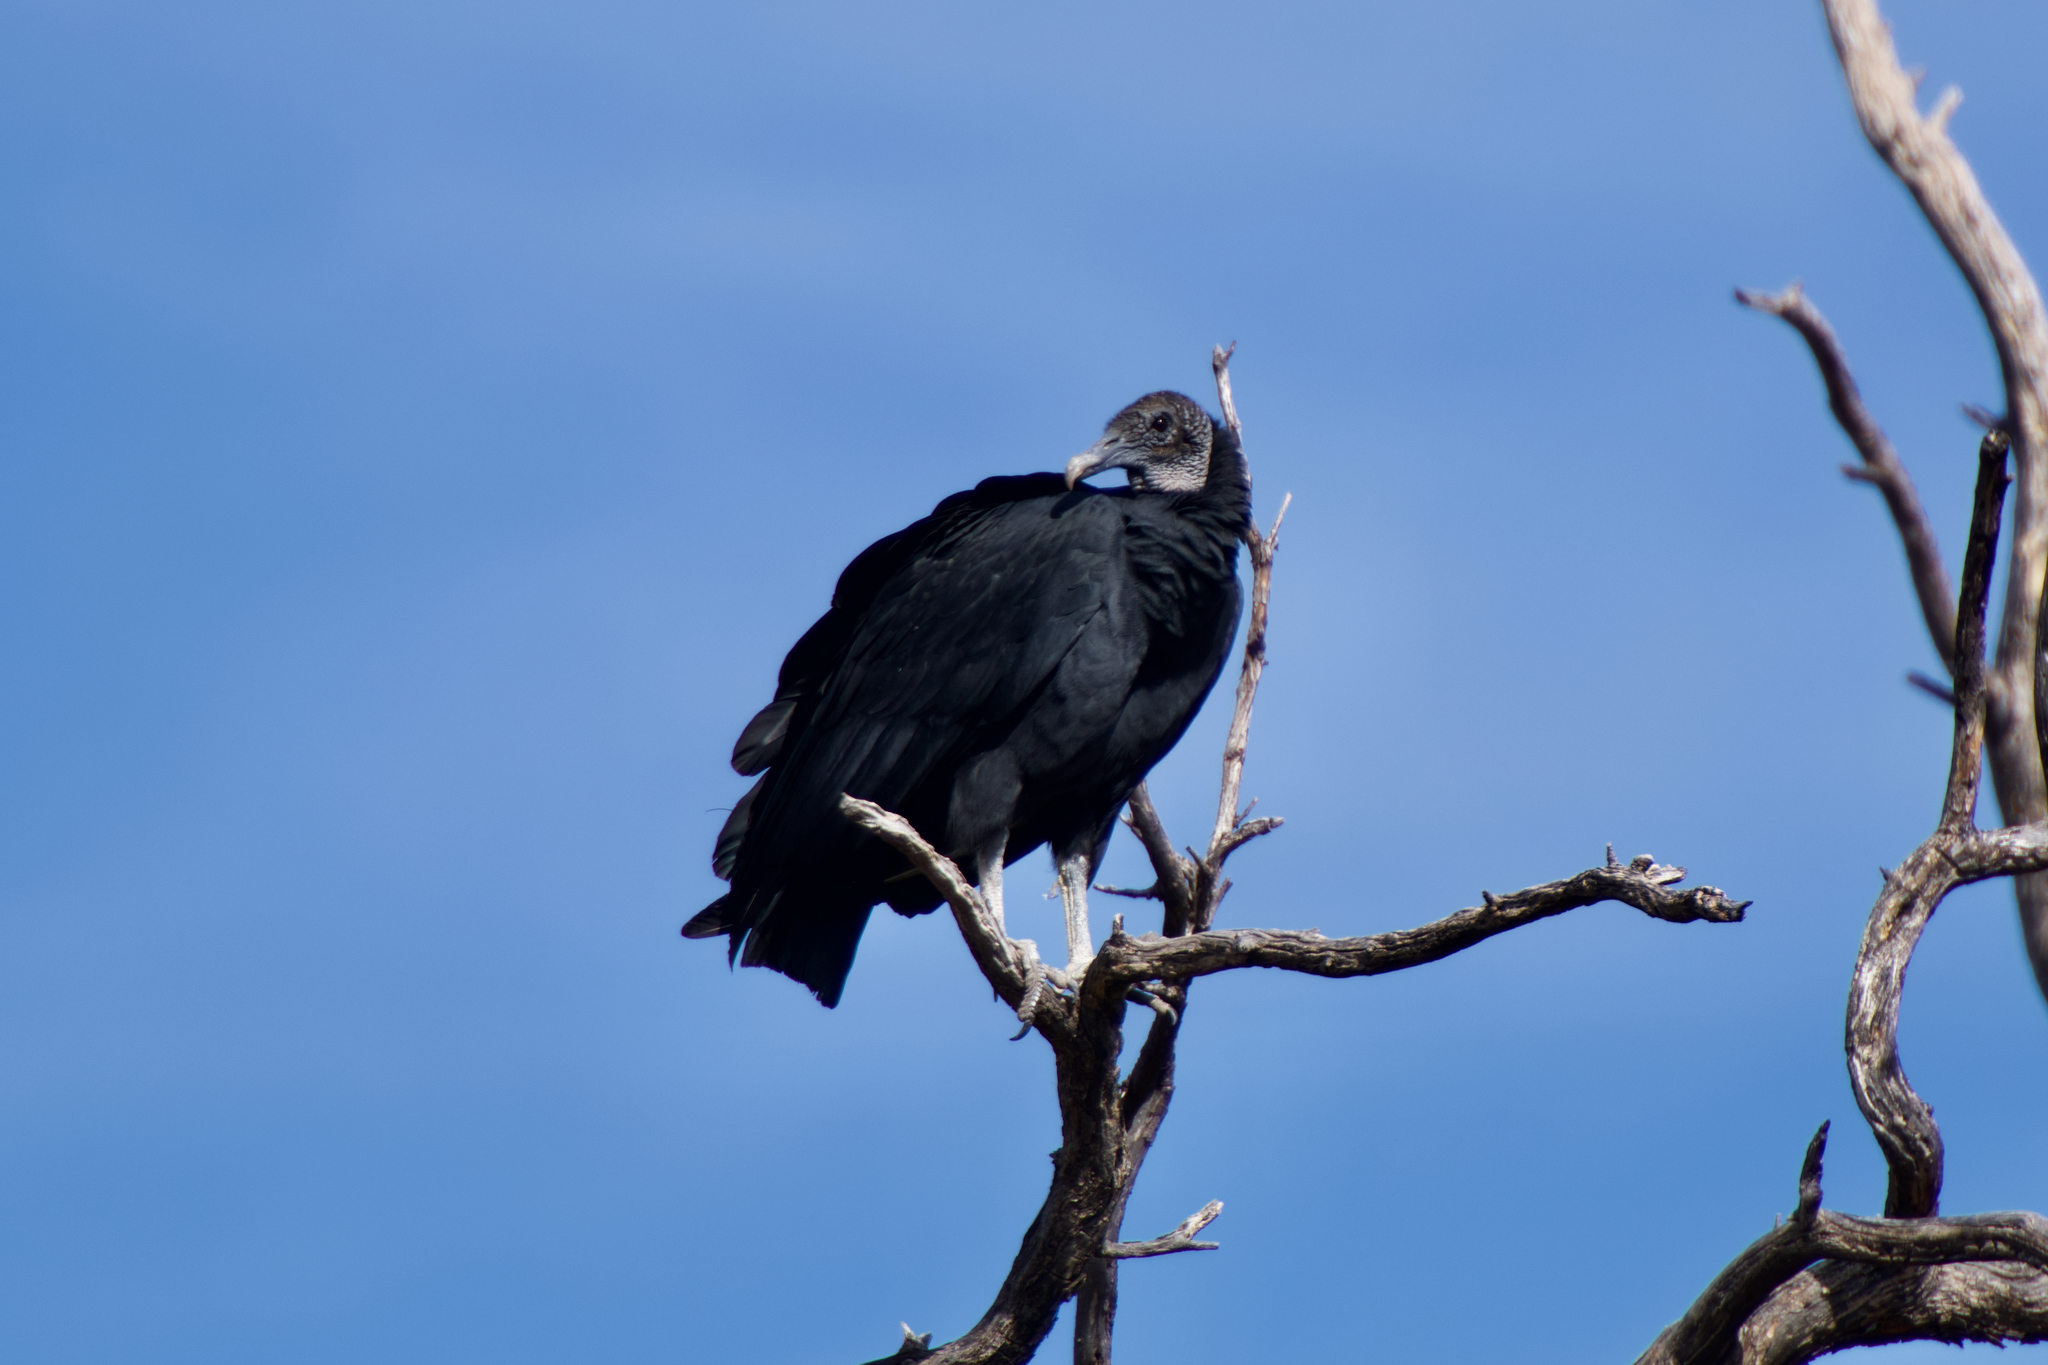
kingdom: Animalia
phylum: Chordata
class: Aves
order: Accipitriformes
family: Cathartidae
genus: Coragyps
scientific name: Coragyps atratus
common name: Black vulture
